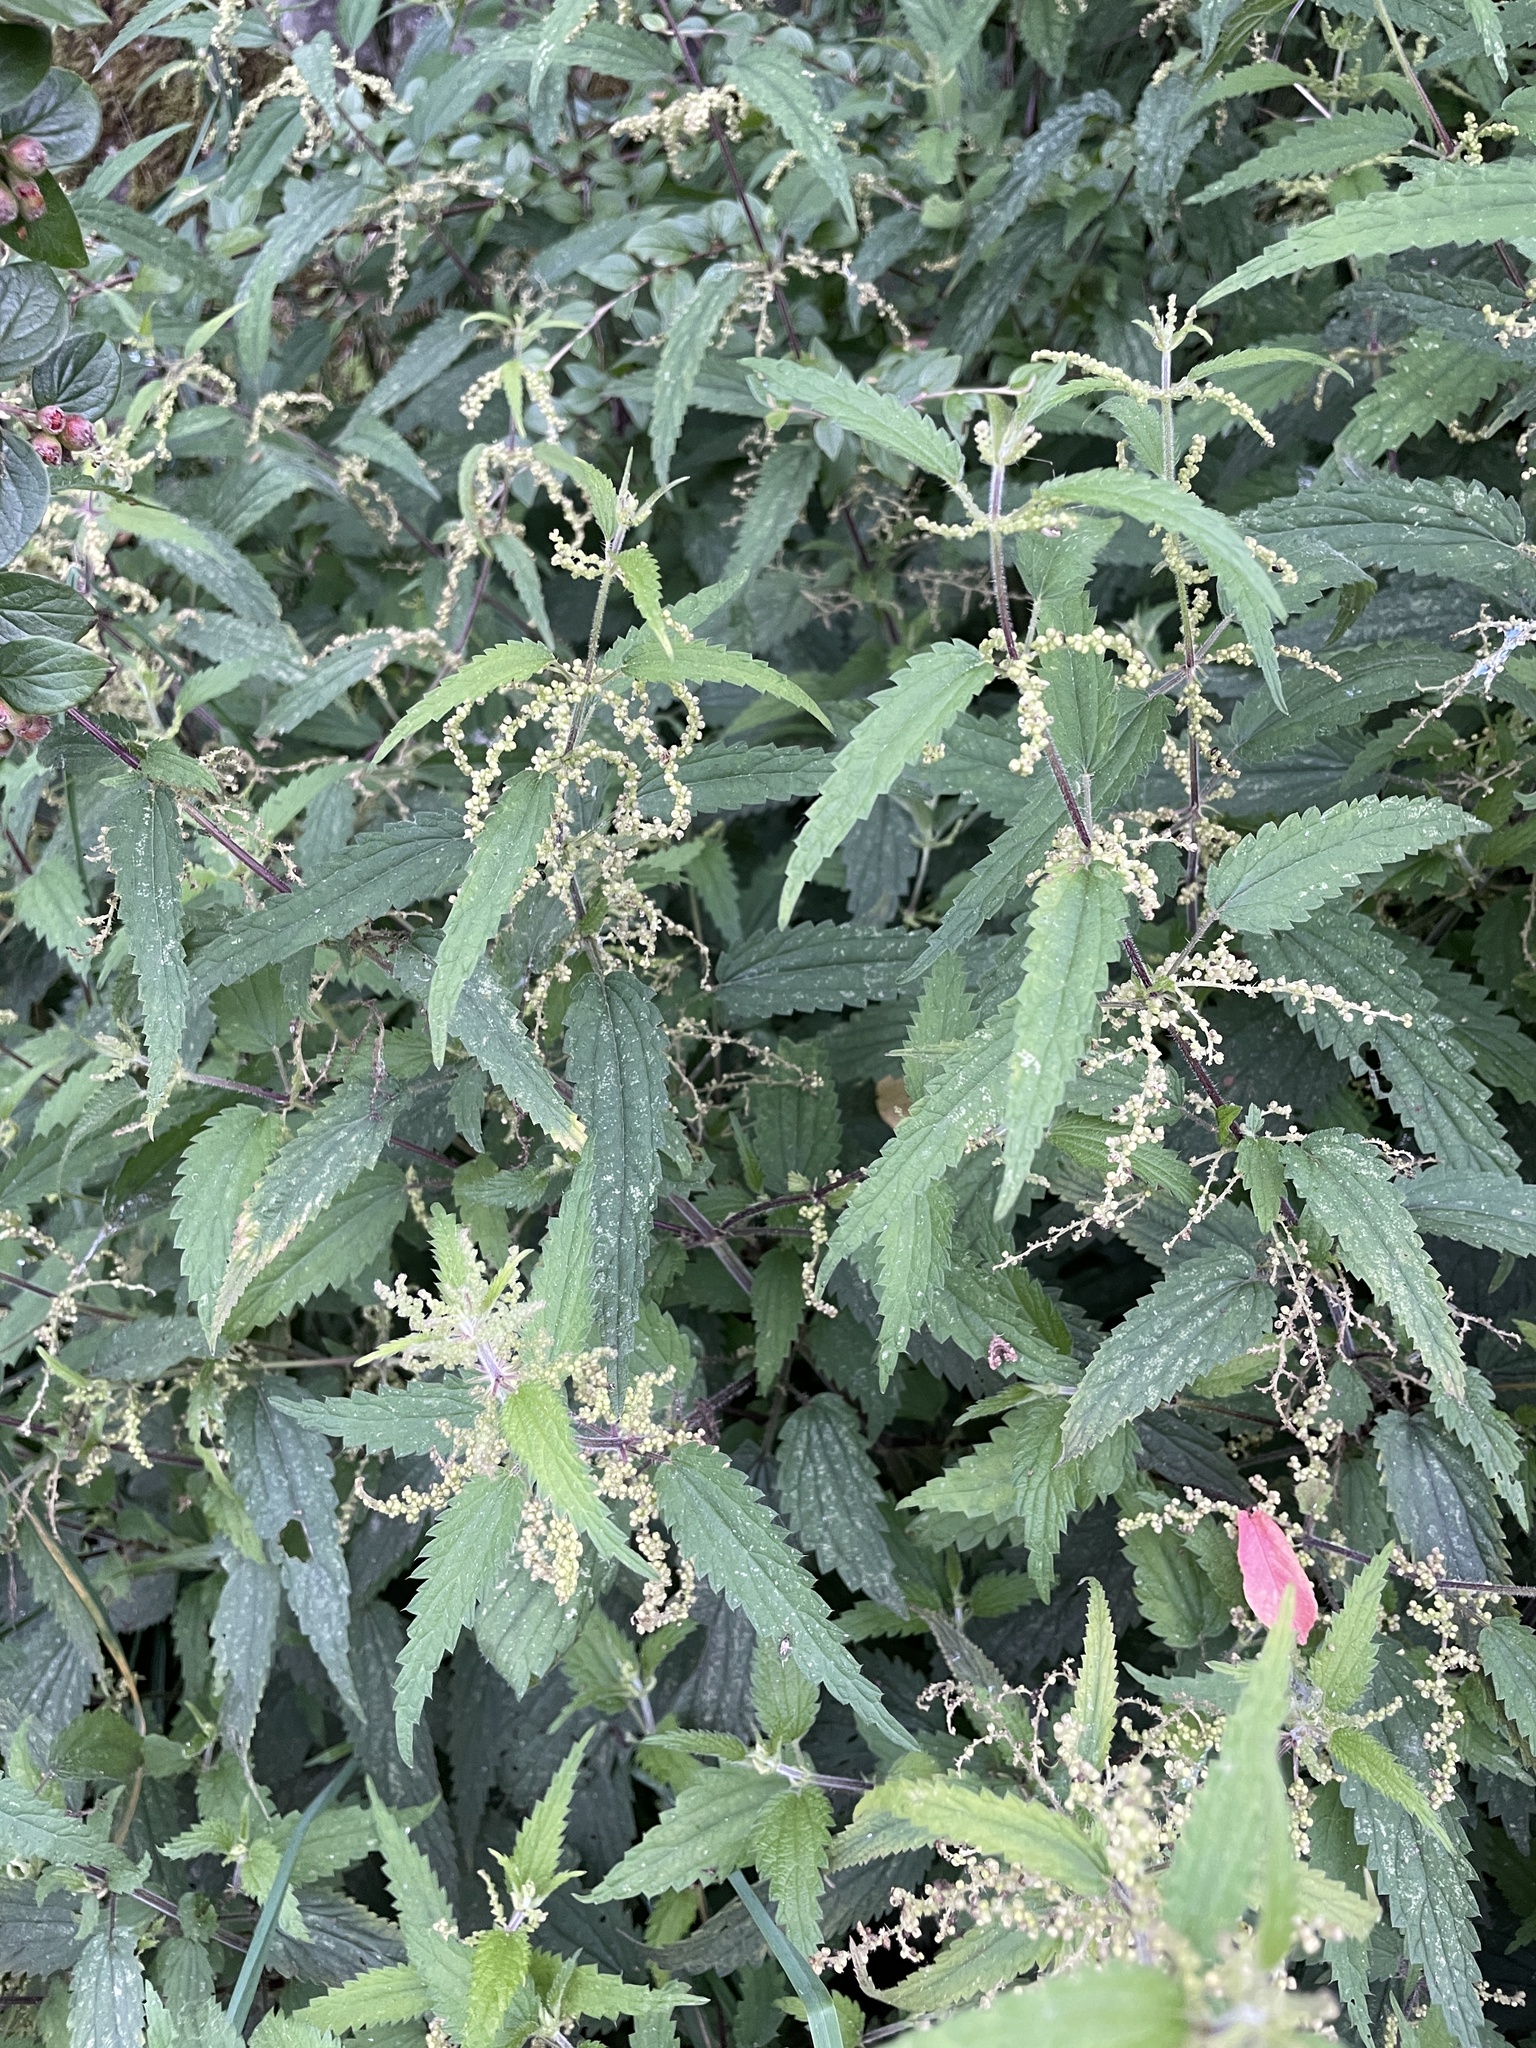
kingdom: Plantae
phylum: Tracheophyta
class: Magnoliopsida
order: Rosales
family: Urticaceae
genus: Urtica
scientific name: Urtica dioica
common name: Common nettle
